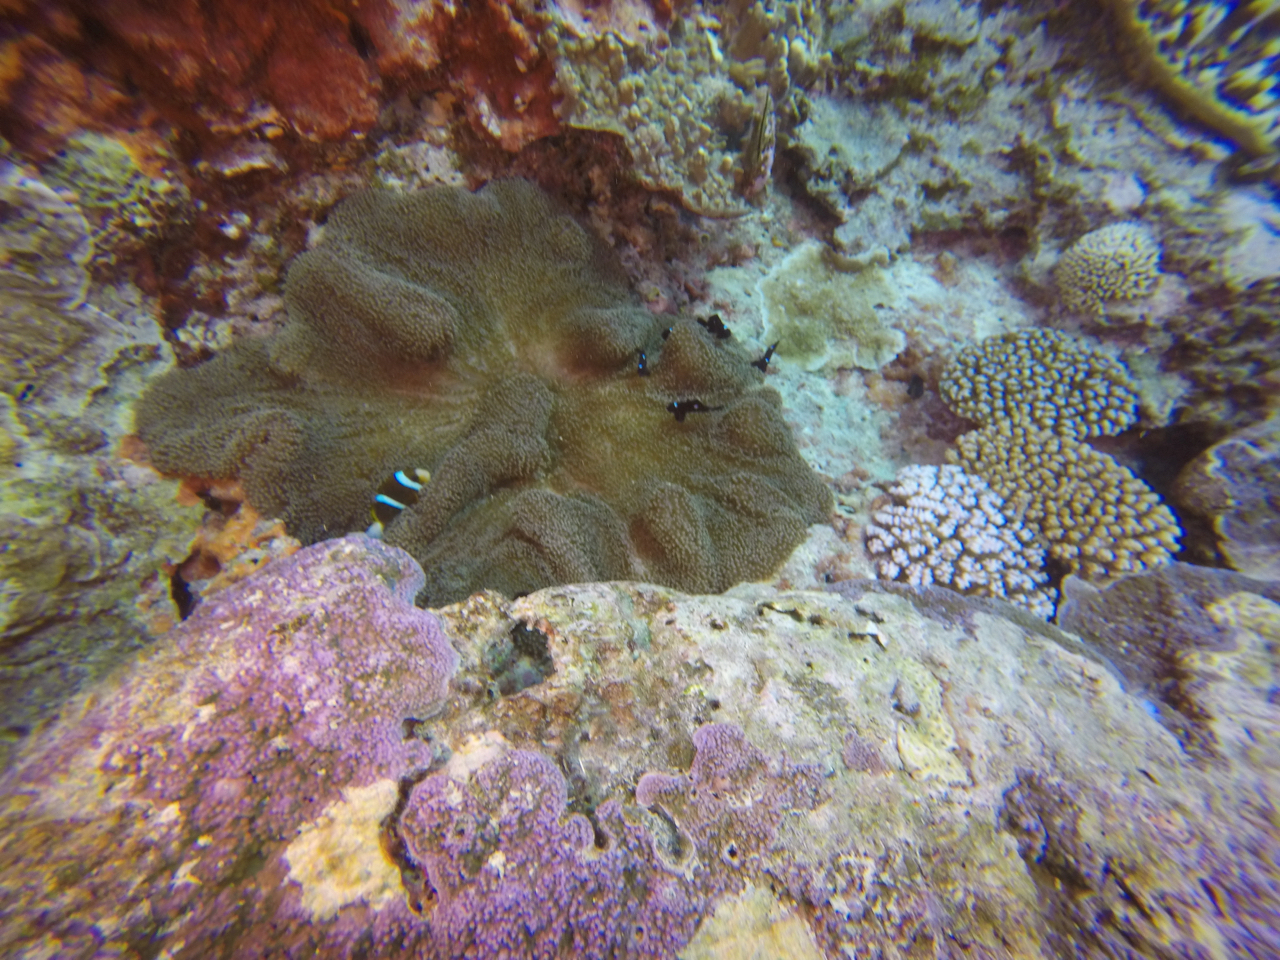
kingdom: Animalia
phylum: Chordata
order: Perciformes
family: Pomacentridae
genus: Amphiprion
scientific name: Amphiprion akindynos
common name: Barrier reef anemonefish
